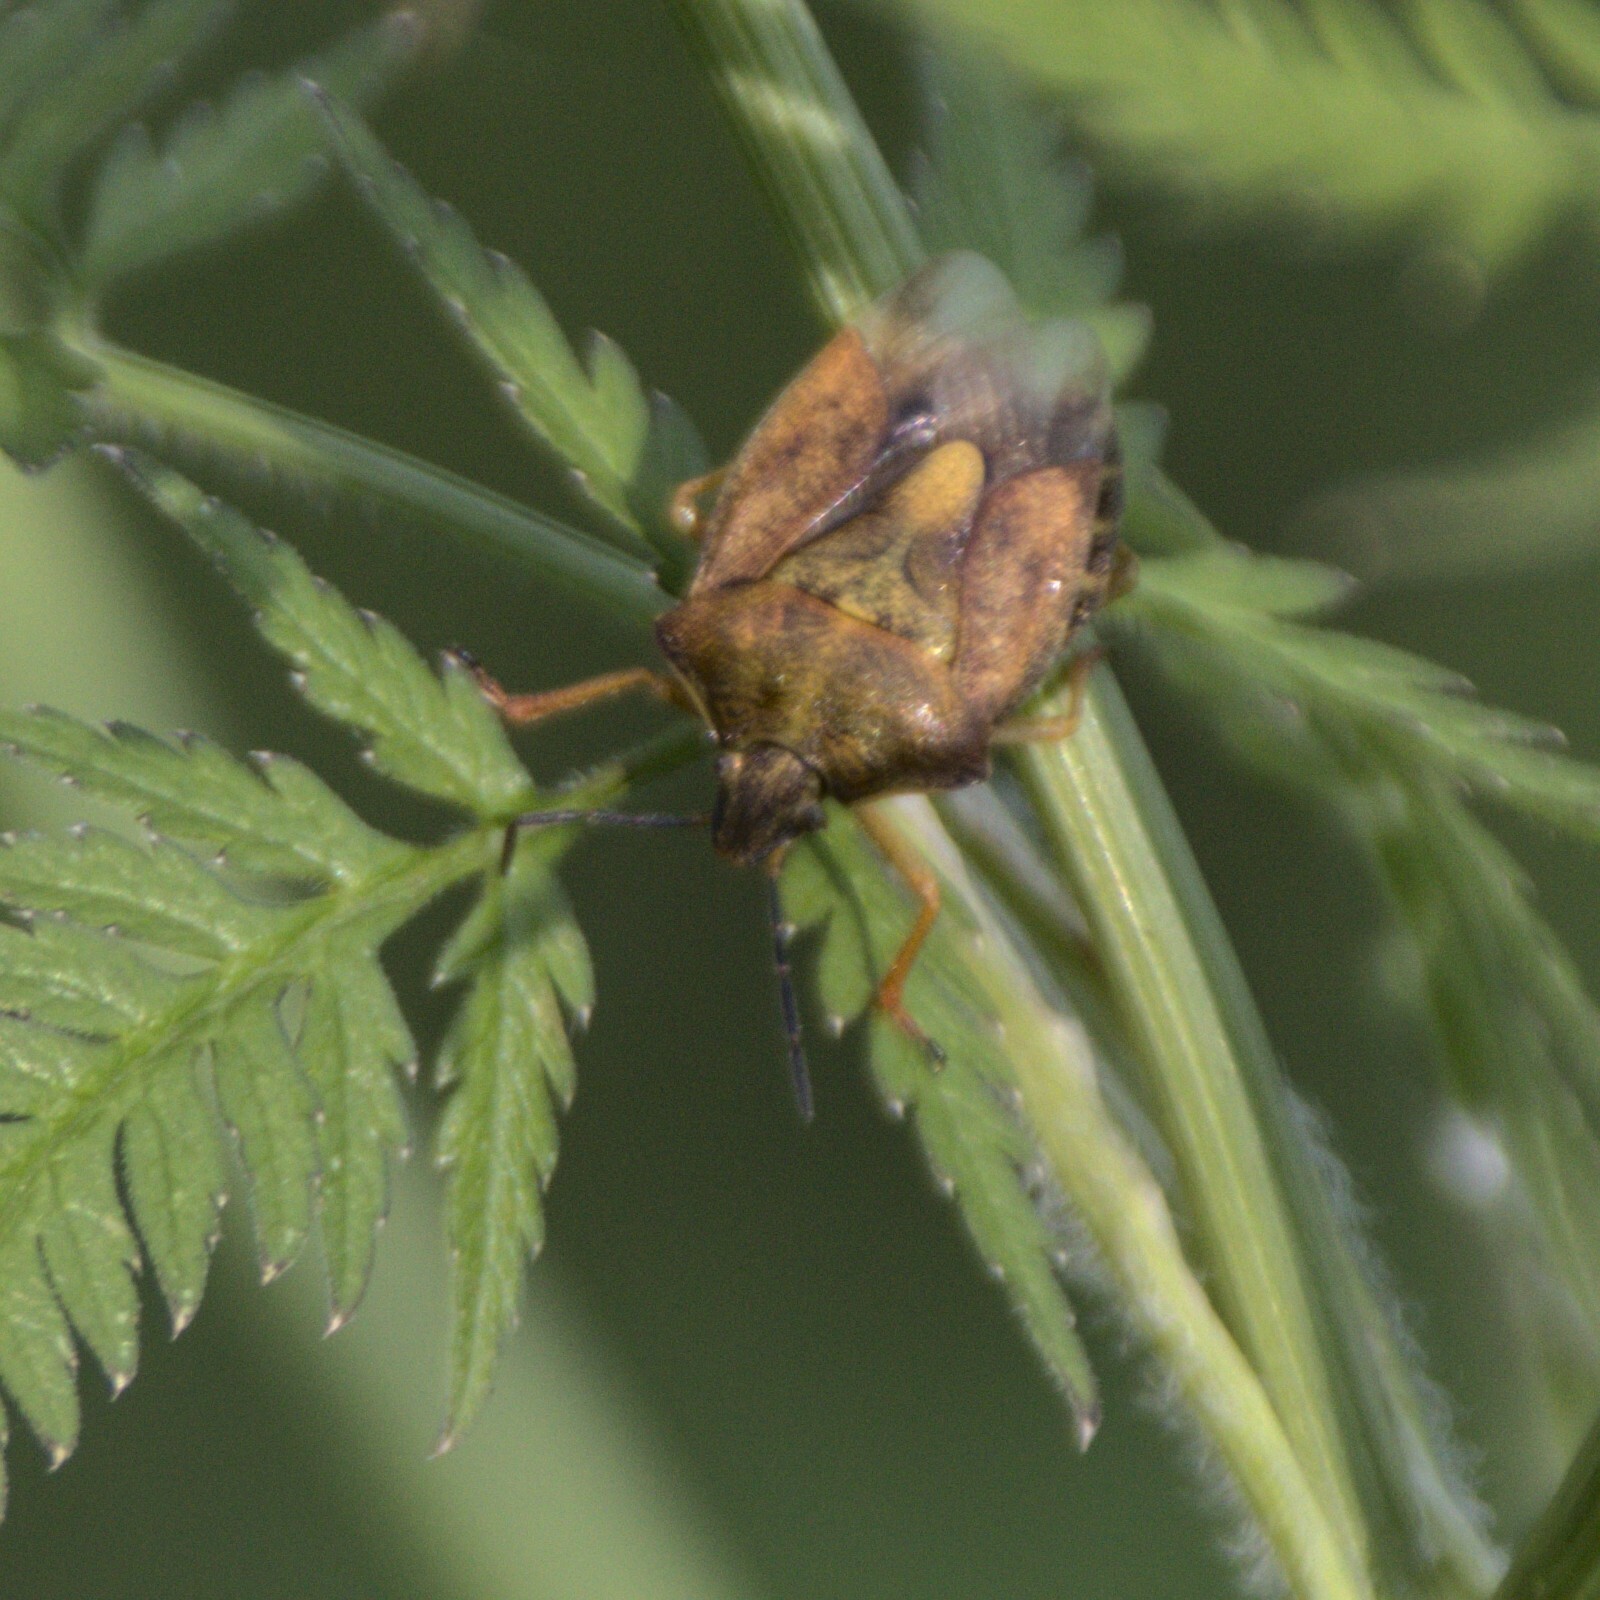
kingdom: Animalia
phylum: Arthropoda
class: Insecta
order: Hemiptera
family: Pentatomidae
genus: Carpocoris
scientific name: Carpocoris purpureipennis
